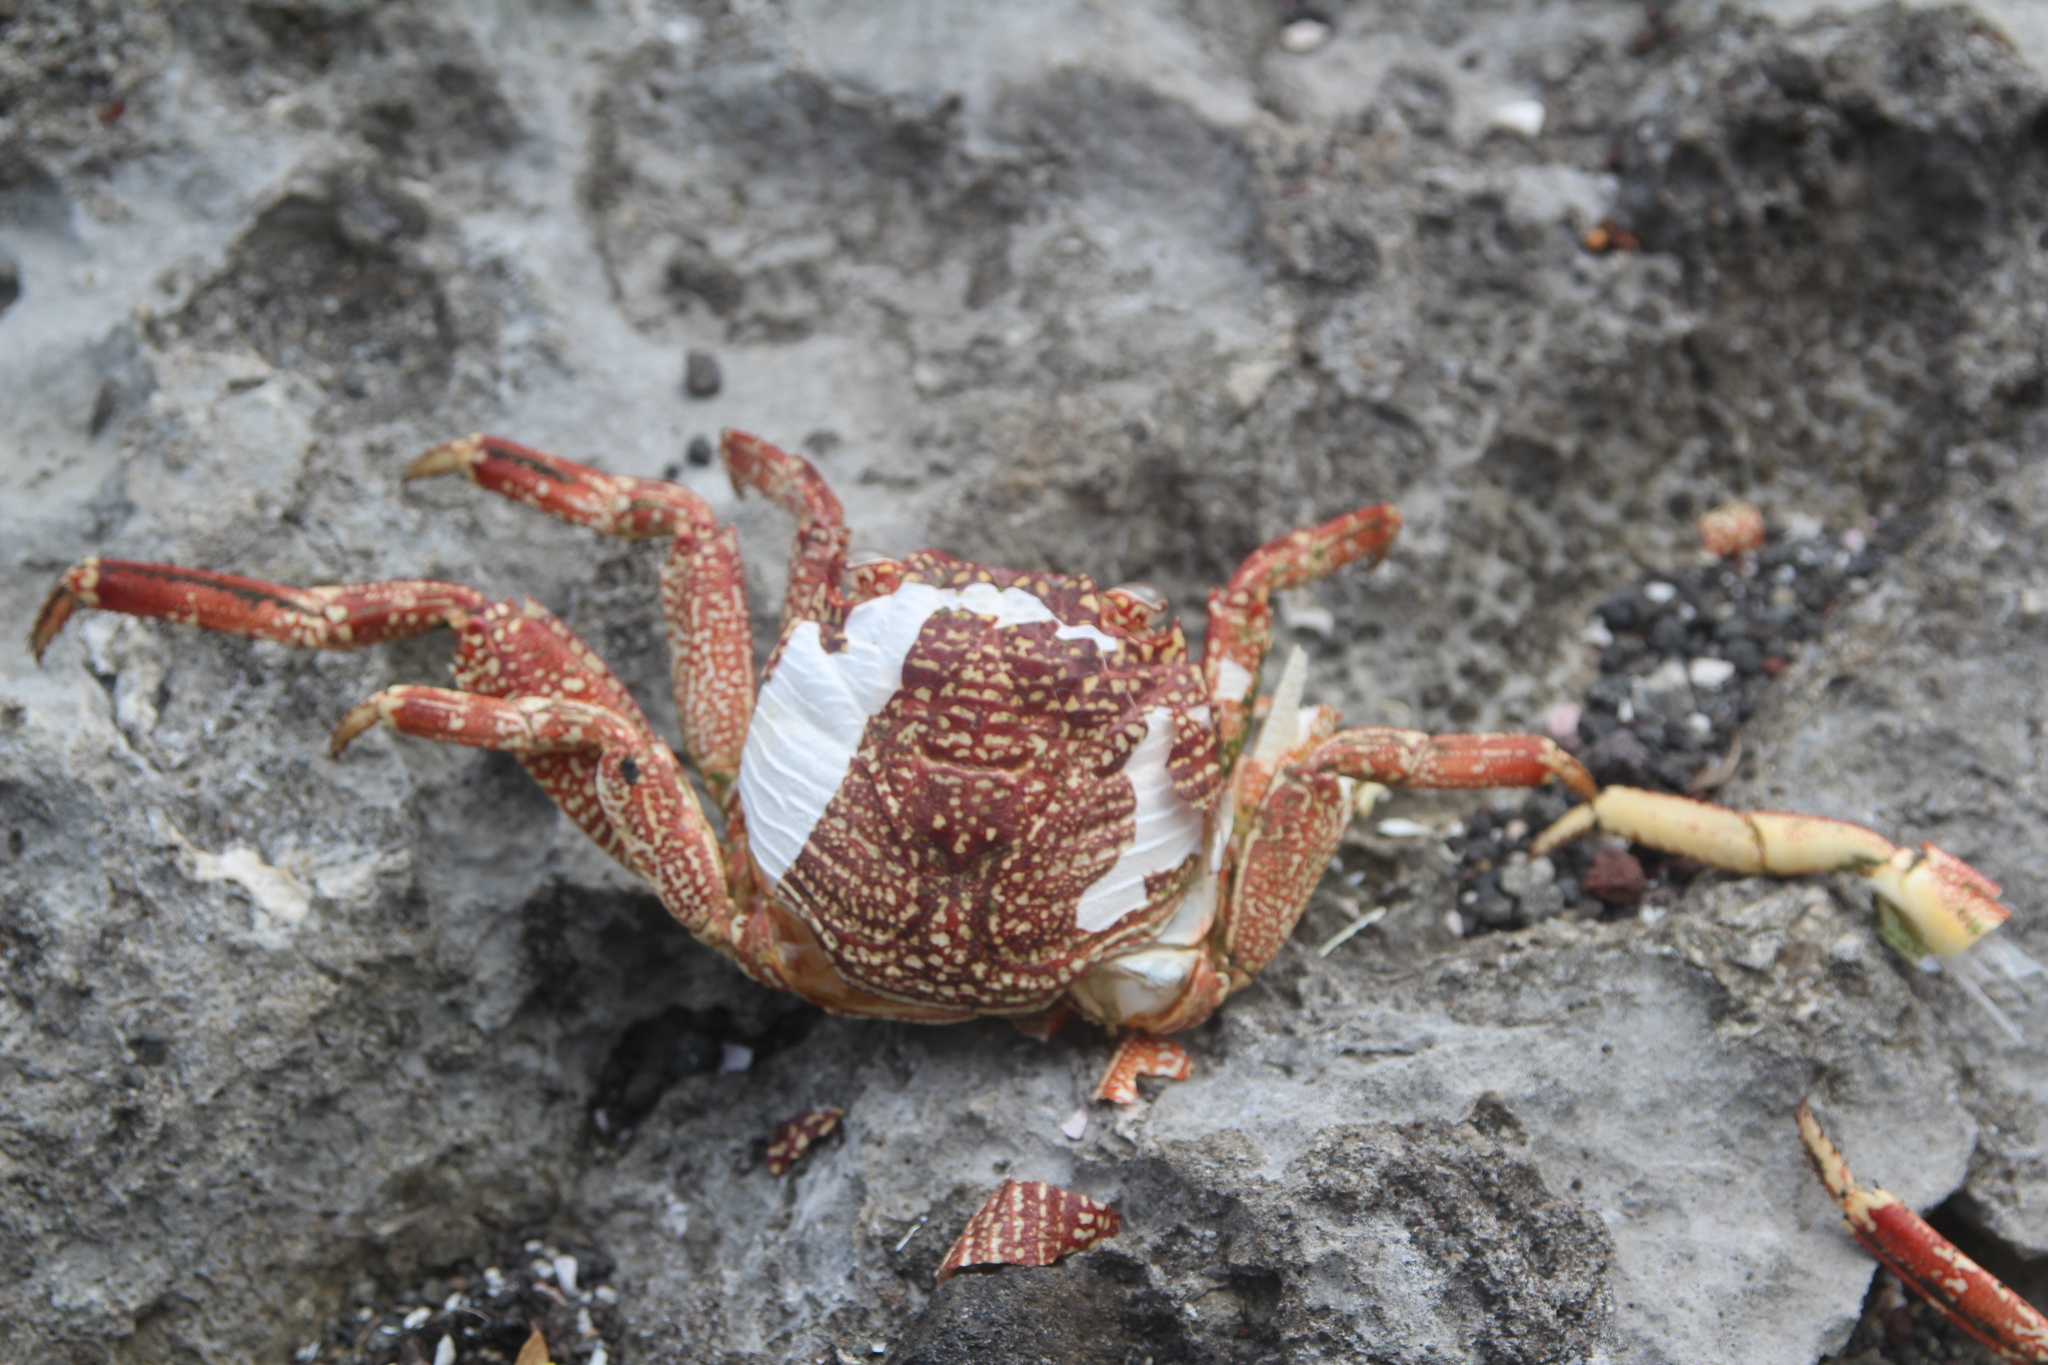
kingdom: Animalia
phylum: Arthropoda
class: Malacostraca
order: Decapoda
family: Grapsidae
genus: Grapsus
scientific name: Grapsus tenuicrustatus
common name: Natal lightfoot crab
